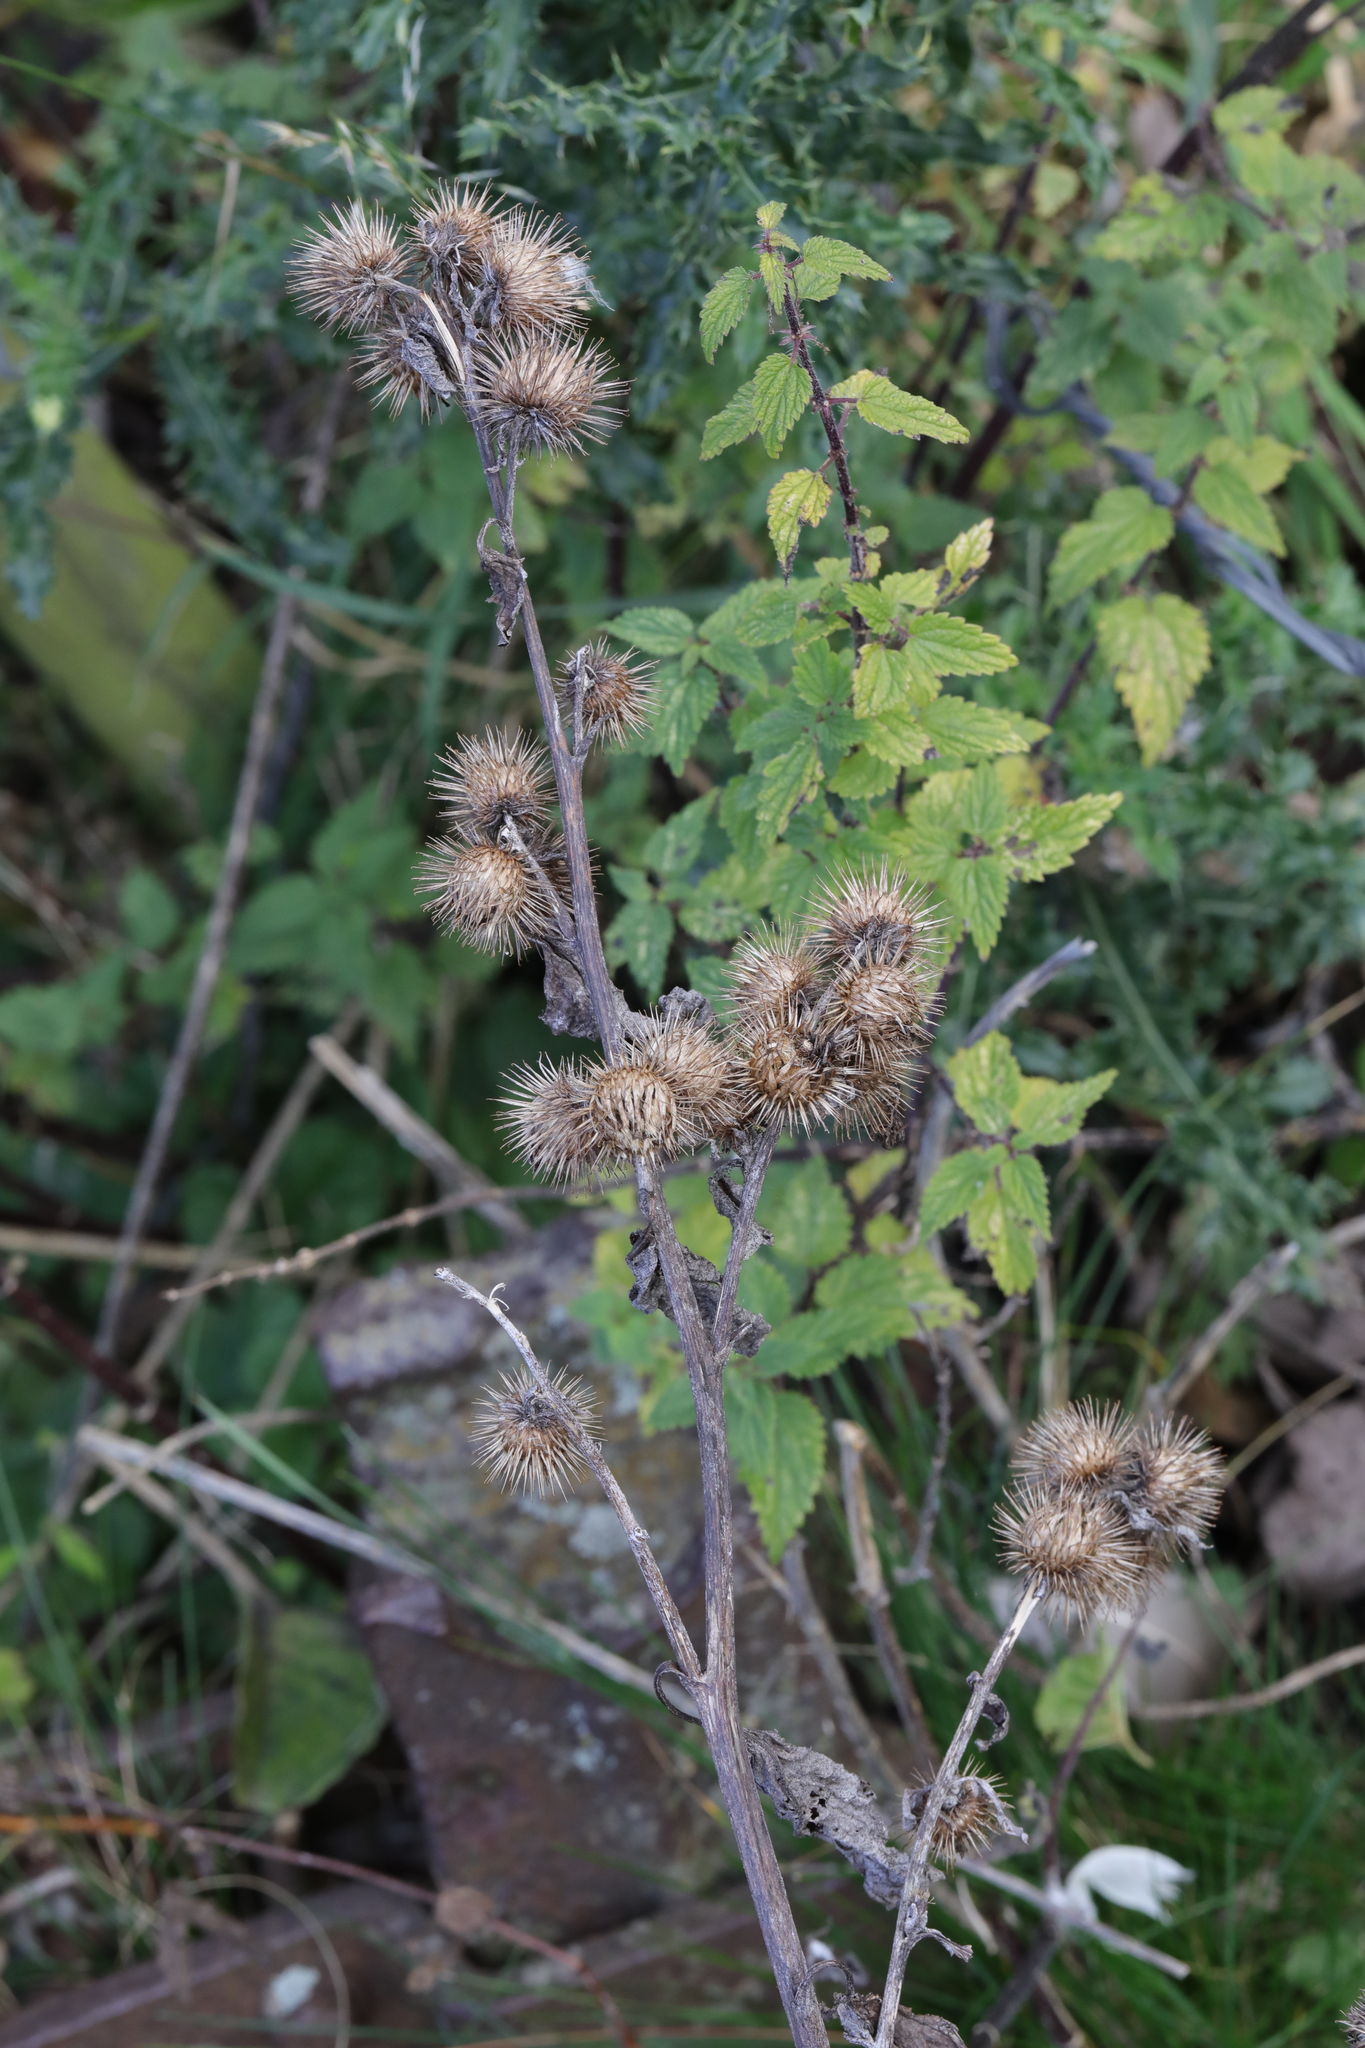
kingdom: Plantae
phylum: Tracheophyta
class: Magnoliopsida
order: Asterales
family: Asteraceae
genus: Arctium
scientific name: Arctium minus
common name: Lesser burdock
